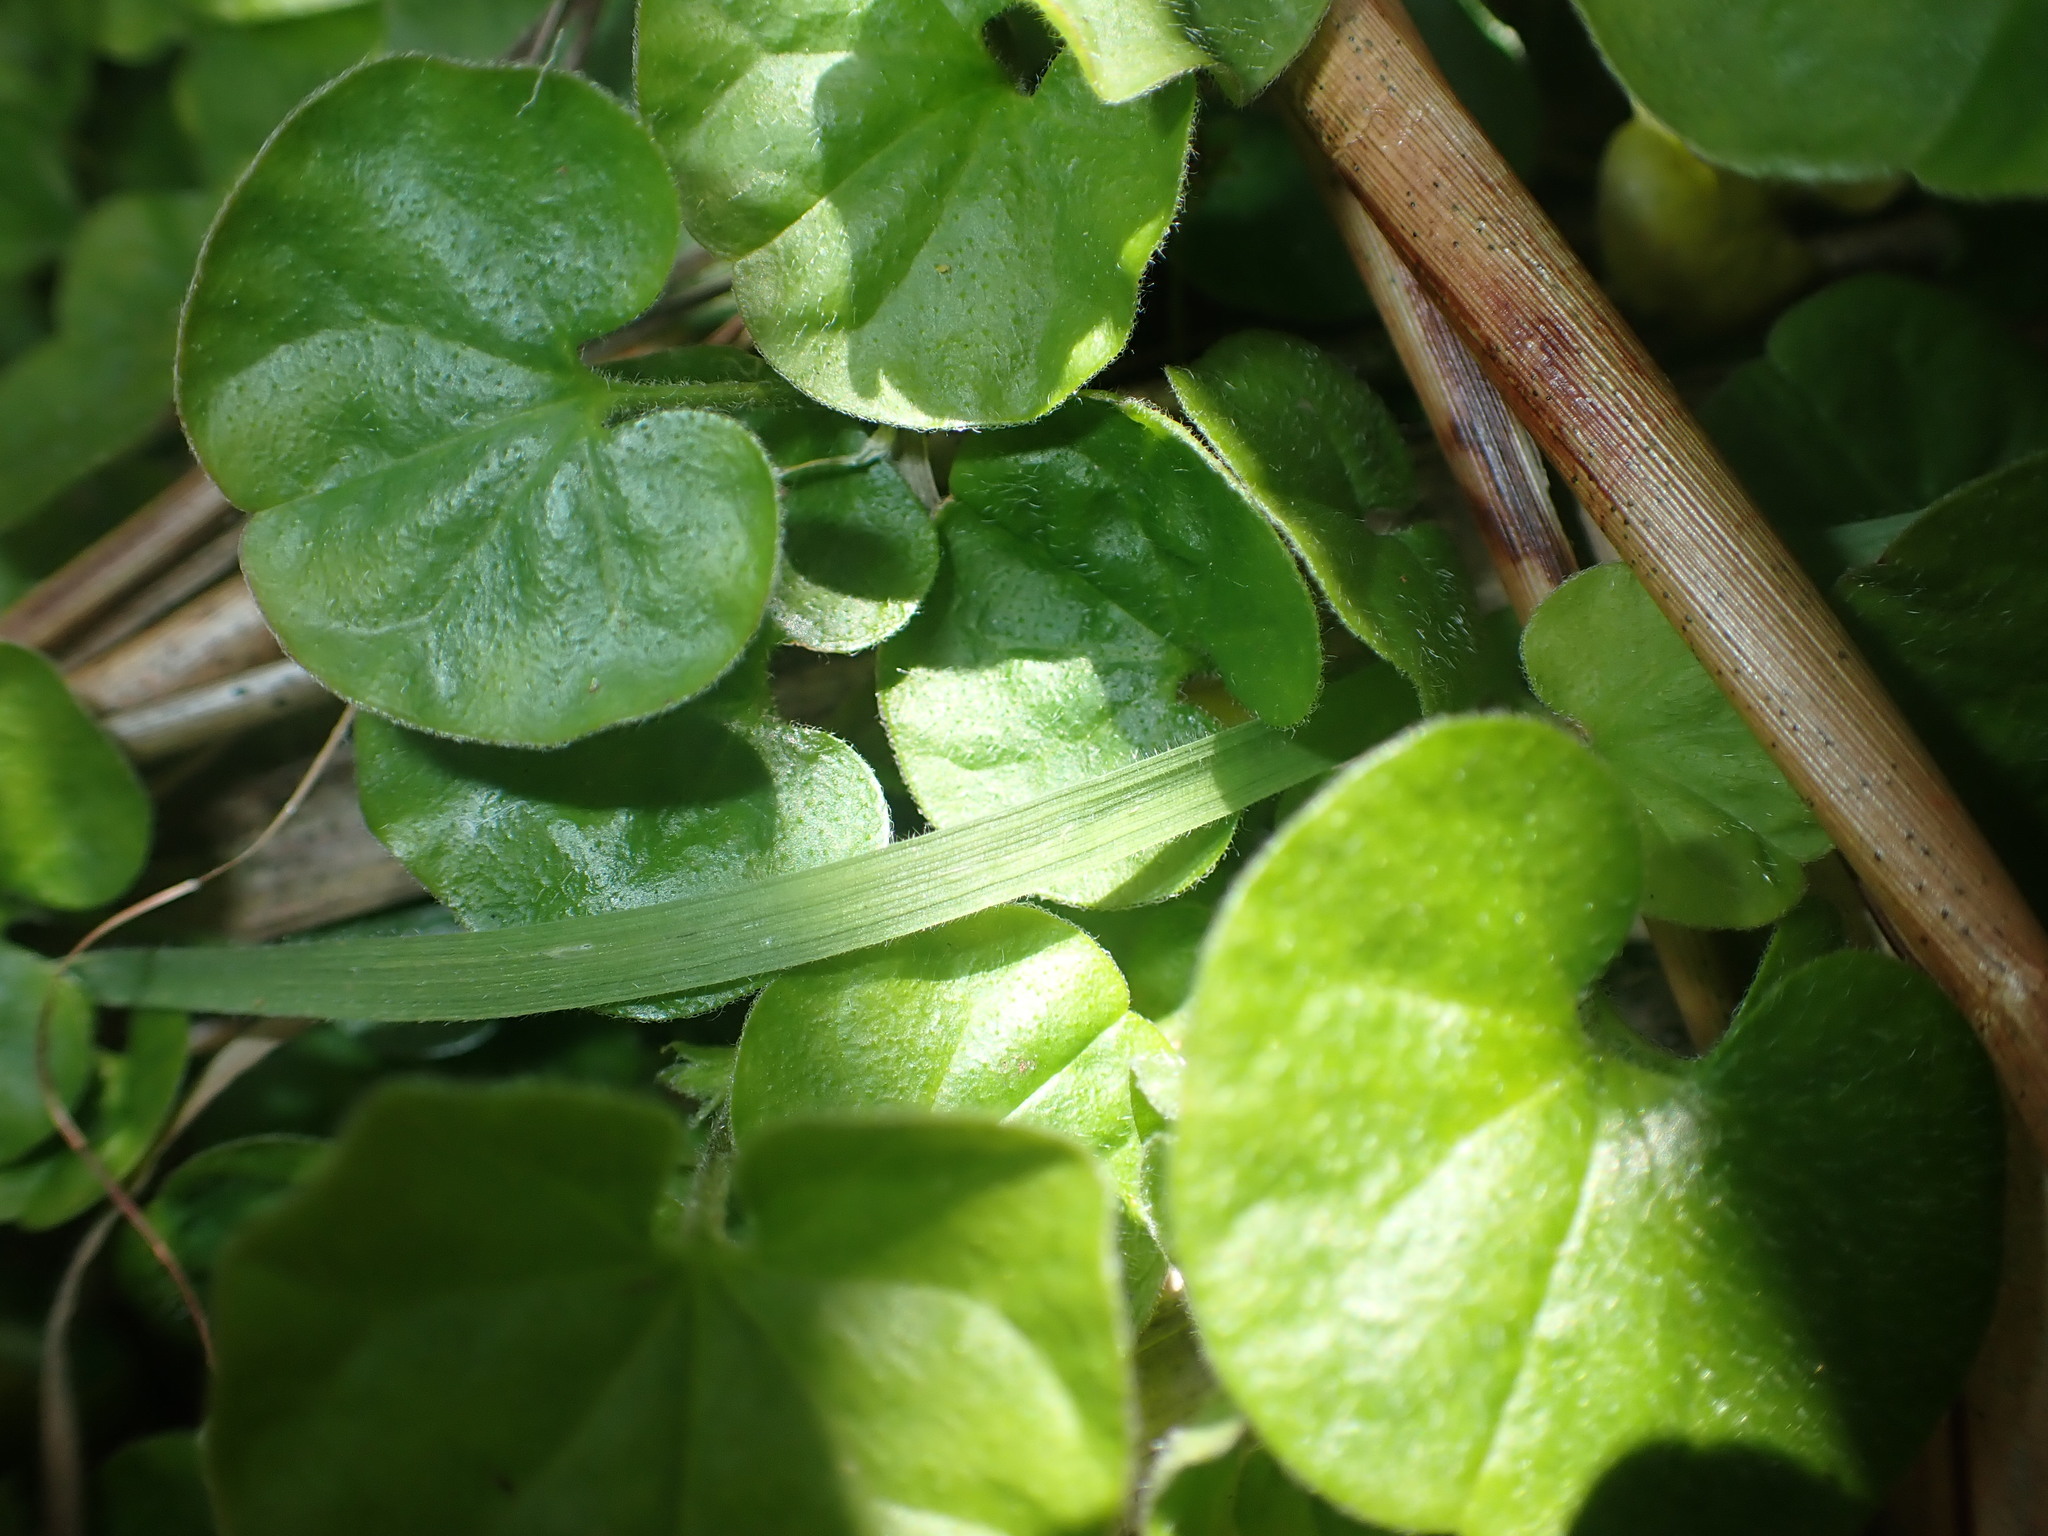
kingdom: Plantae
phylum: Tracheophyta
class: Magnoliopsida
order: Solanales
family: Convolvulaceae
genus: Dichondra
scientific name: Dichondra repens
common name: Kidneyweed
